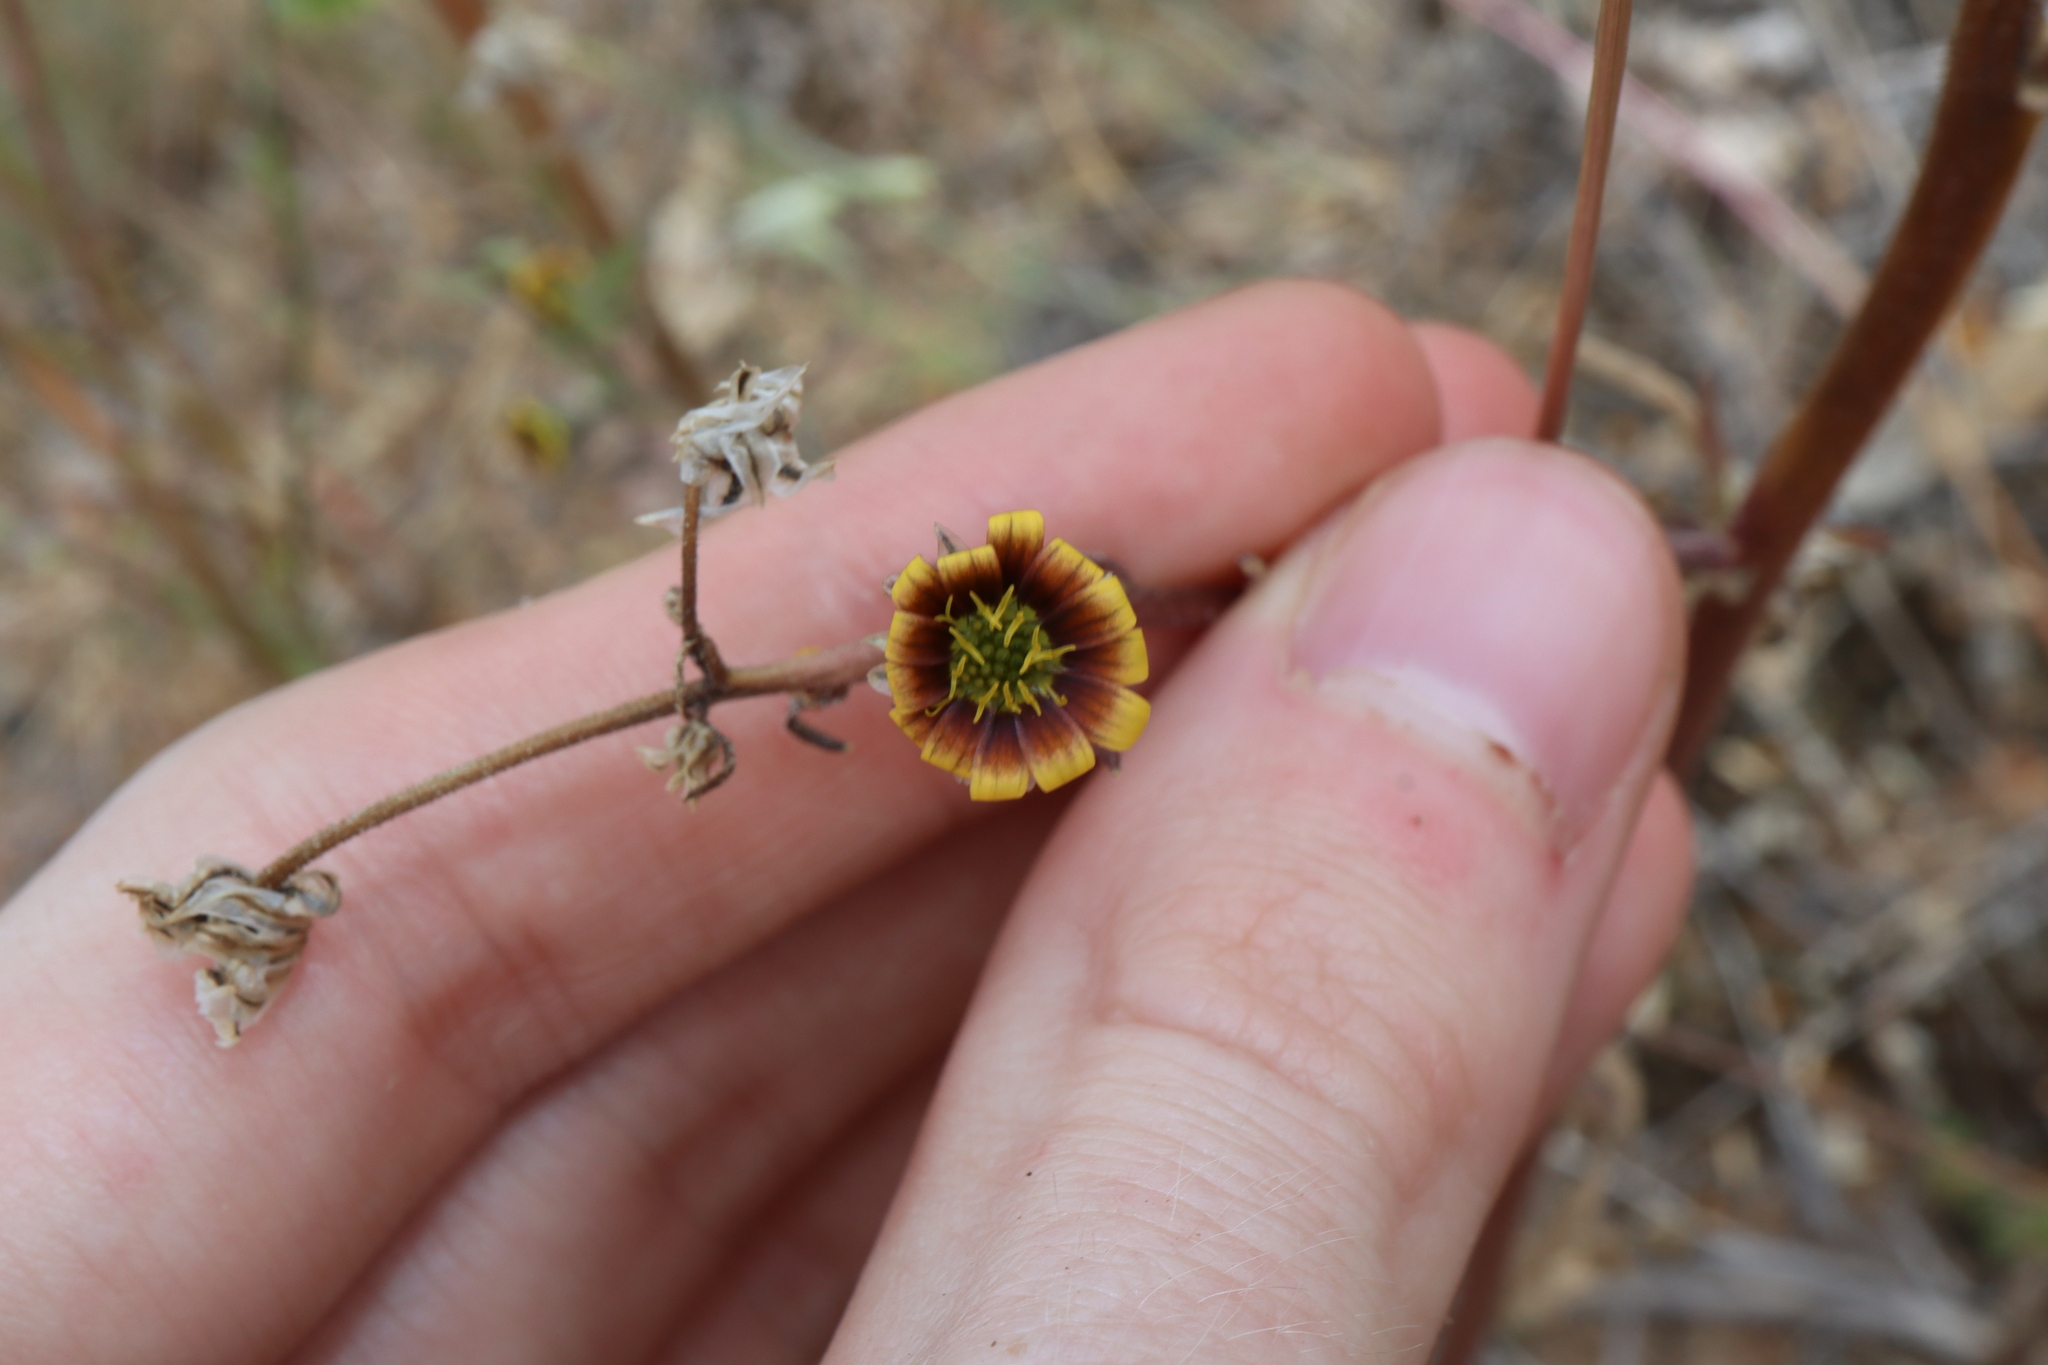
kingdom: Plantae
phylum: Tracheophyta
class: Magnoliopsida
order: Asterales
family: Asteraceae
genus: Osteospermum
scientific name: Osteospermum monstrosum
